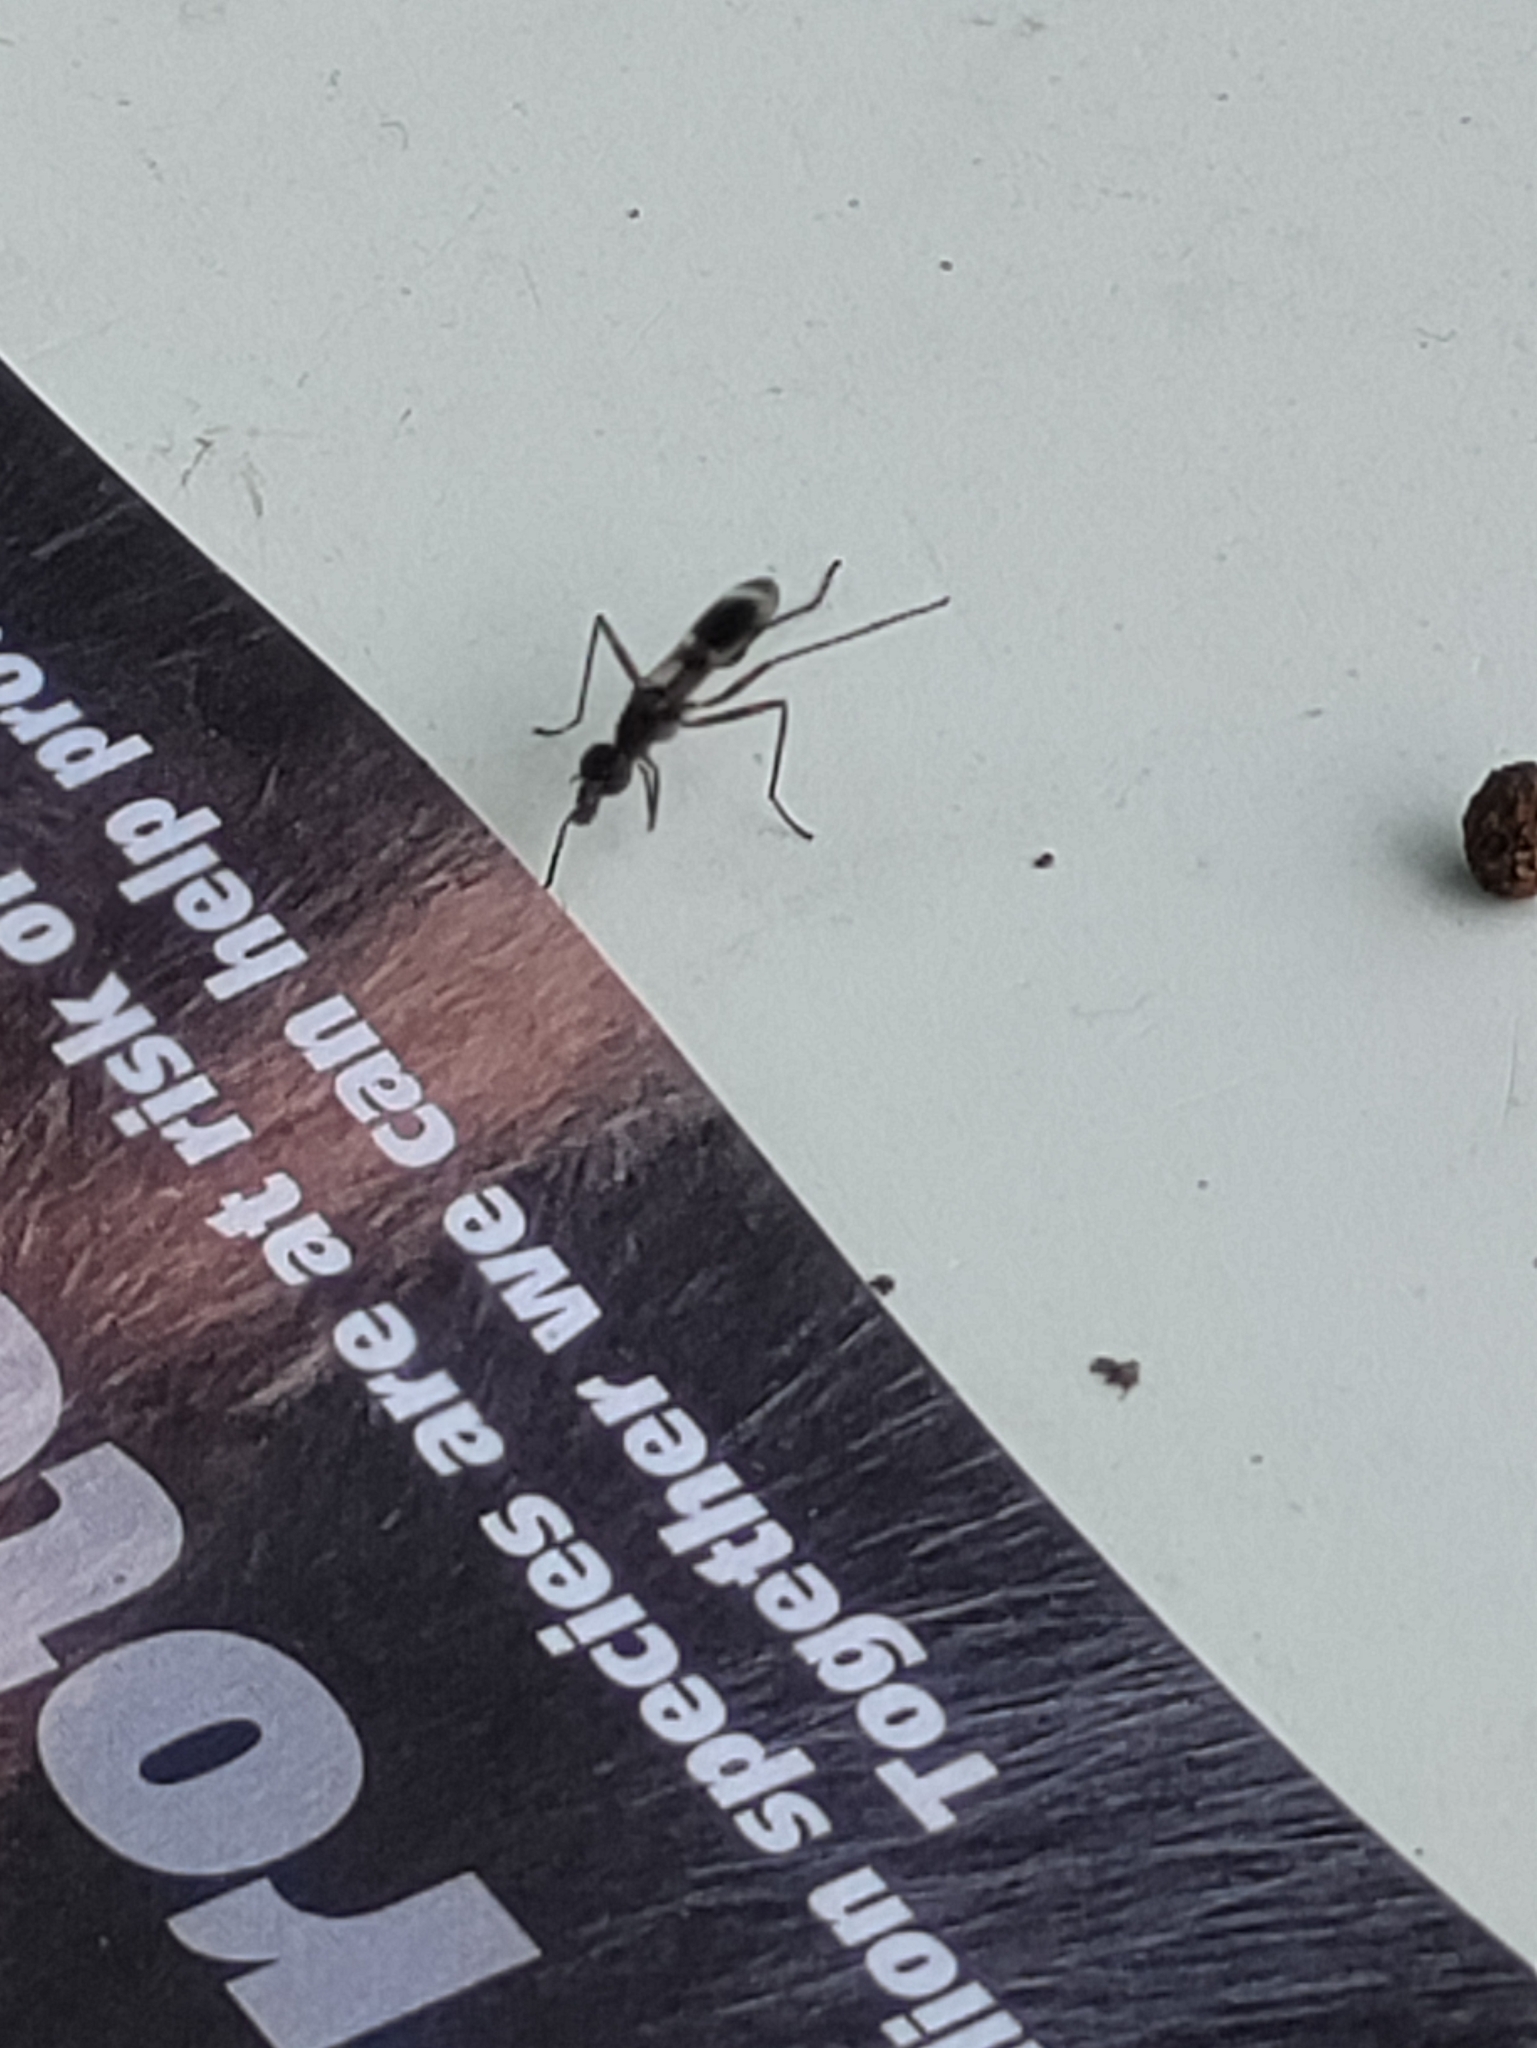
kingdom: Animalia
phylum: Arthropoda
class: Insecta
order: Diptera
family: Micropezidae
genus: Taeniaptera
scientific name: Taeniaptera trivittata
